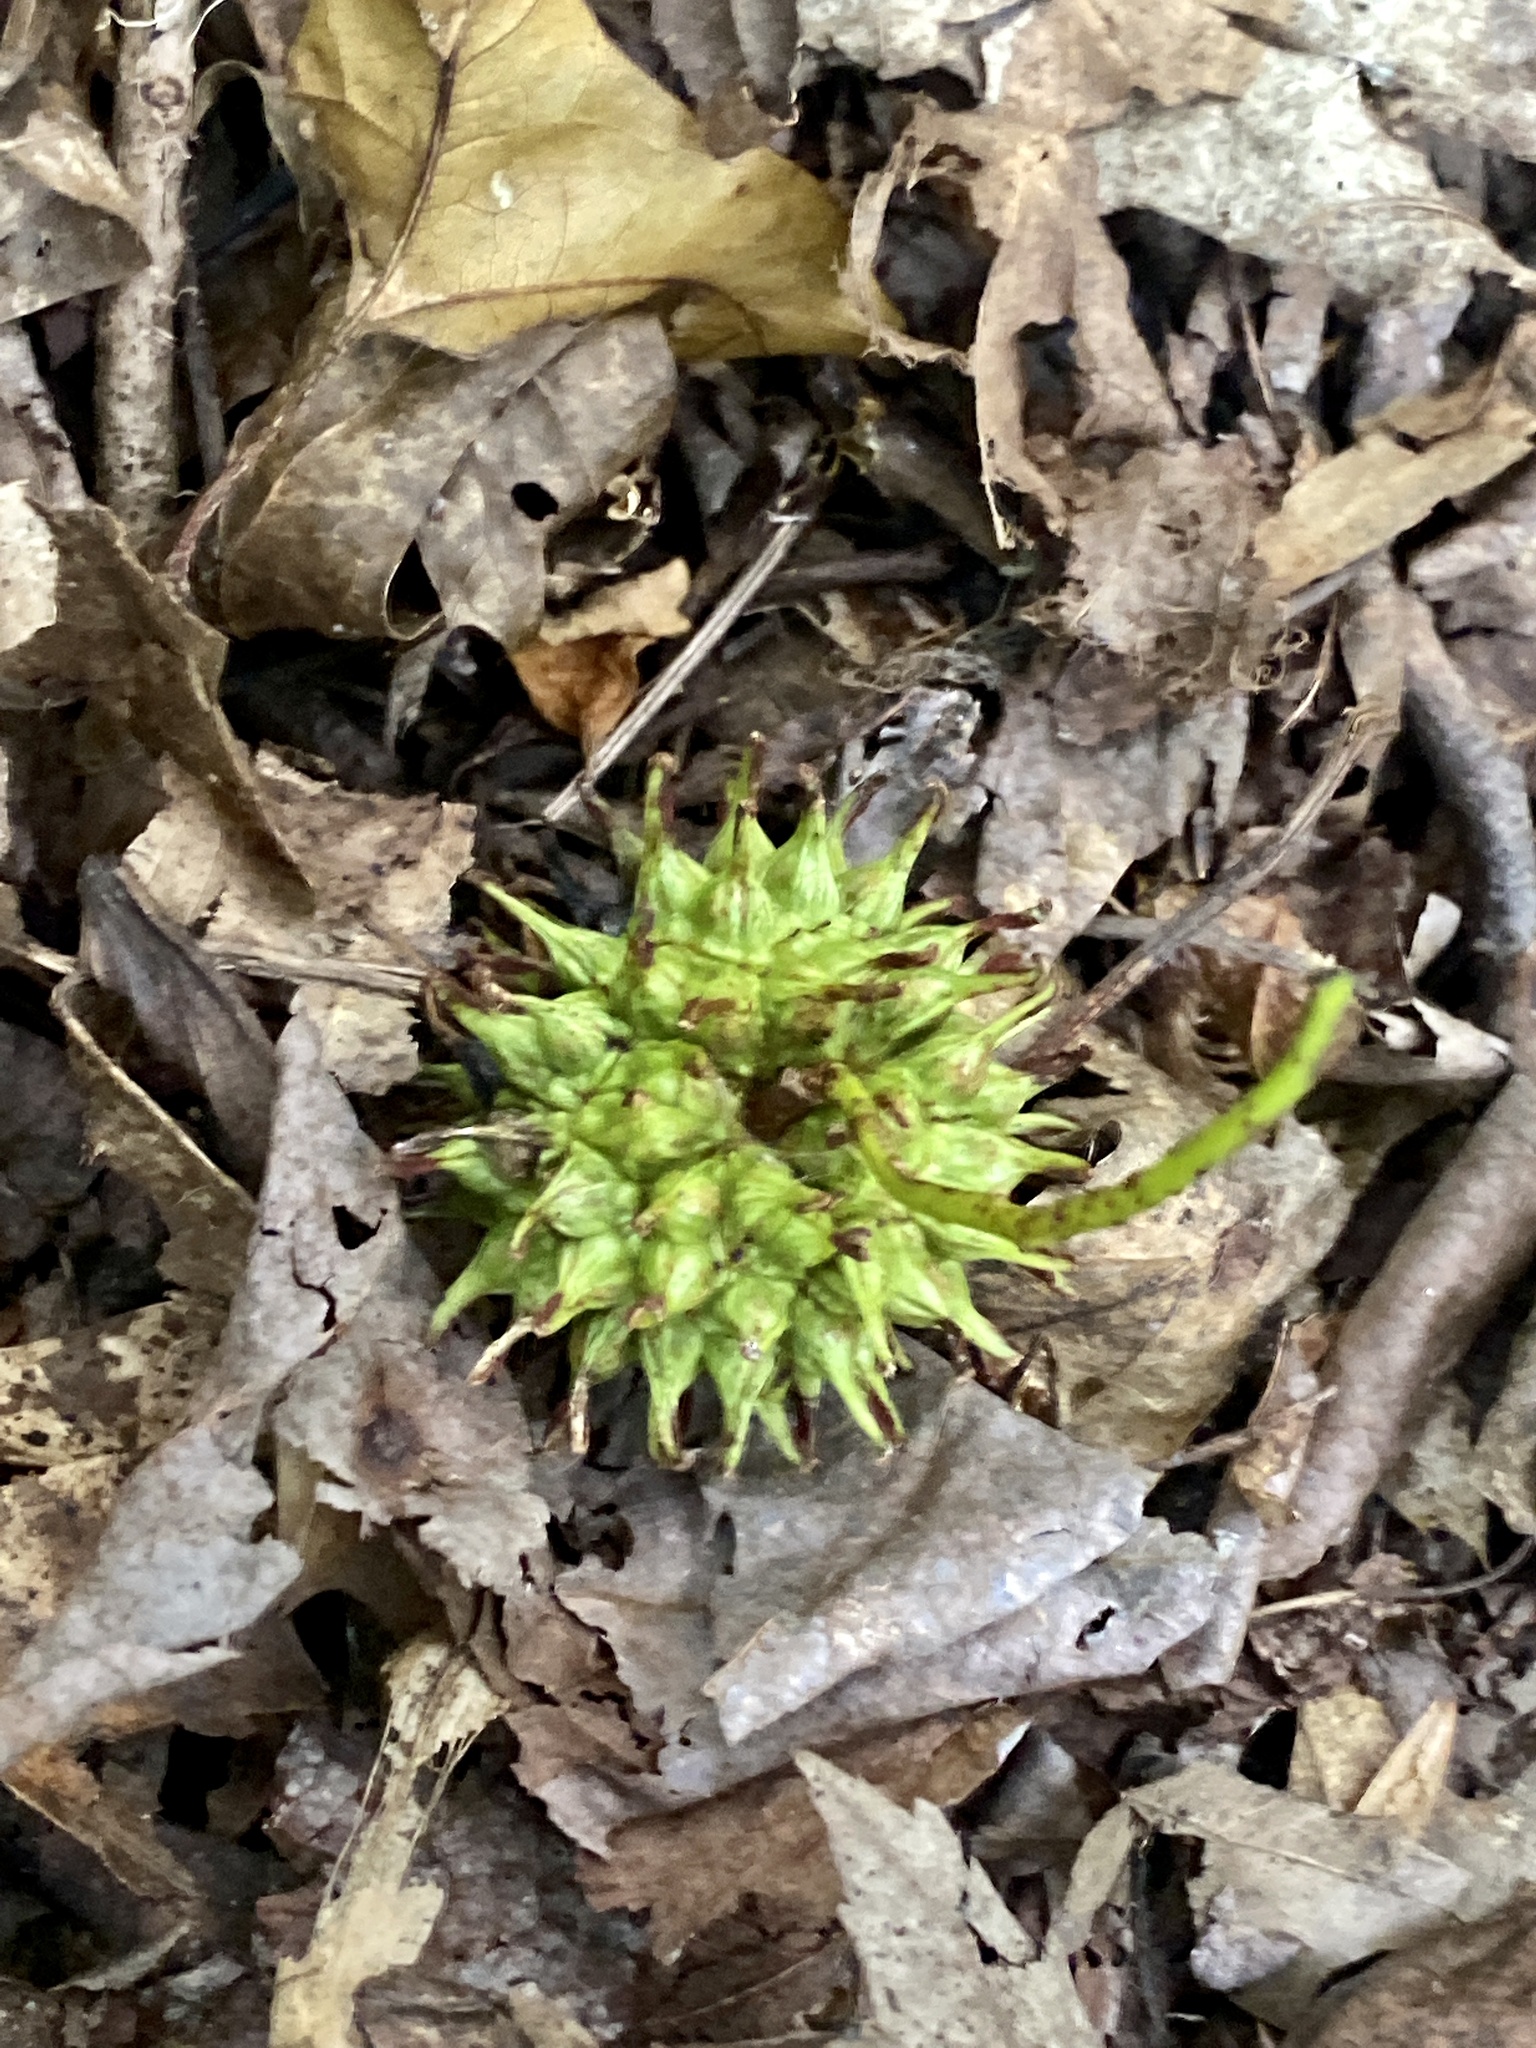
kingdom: Plantae
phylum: Tracheophyta
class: Magnoliopsida
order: Saxifragales
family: Altingiaceae
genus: Liquidambar
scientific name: Liquidambar styraciflua
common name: Sweet gum
